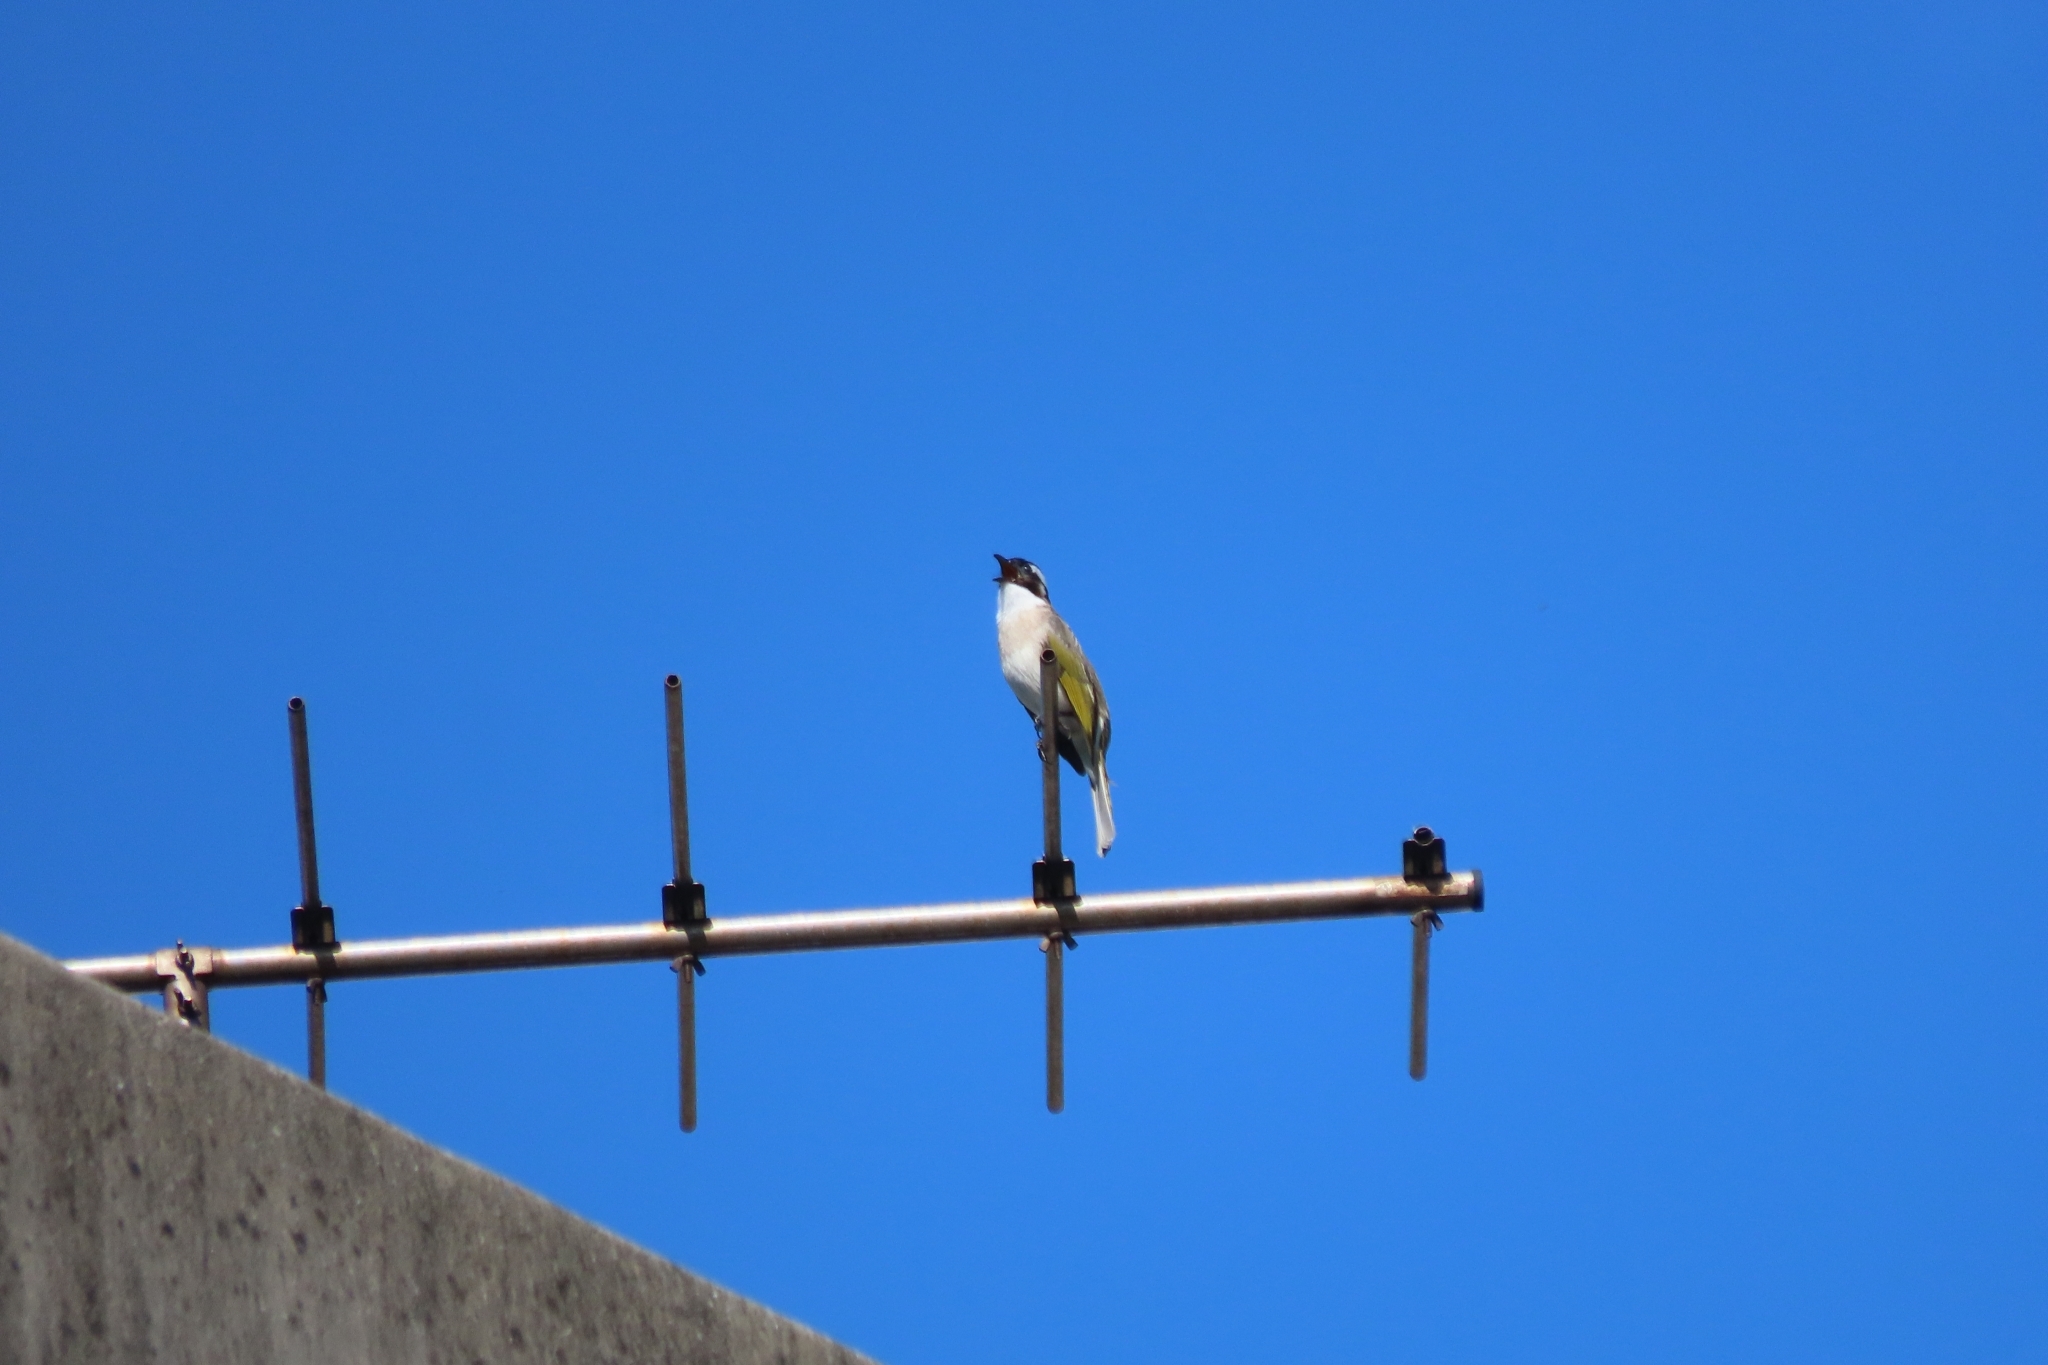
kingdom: Animalia
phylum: Chordata
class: Aves
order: Passeriformes
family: Pycnonotidae
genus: Pycnonotus
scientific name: Pycnonotus sinensis
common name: Light-vented bulbul
